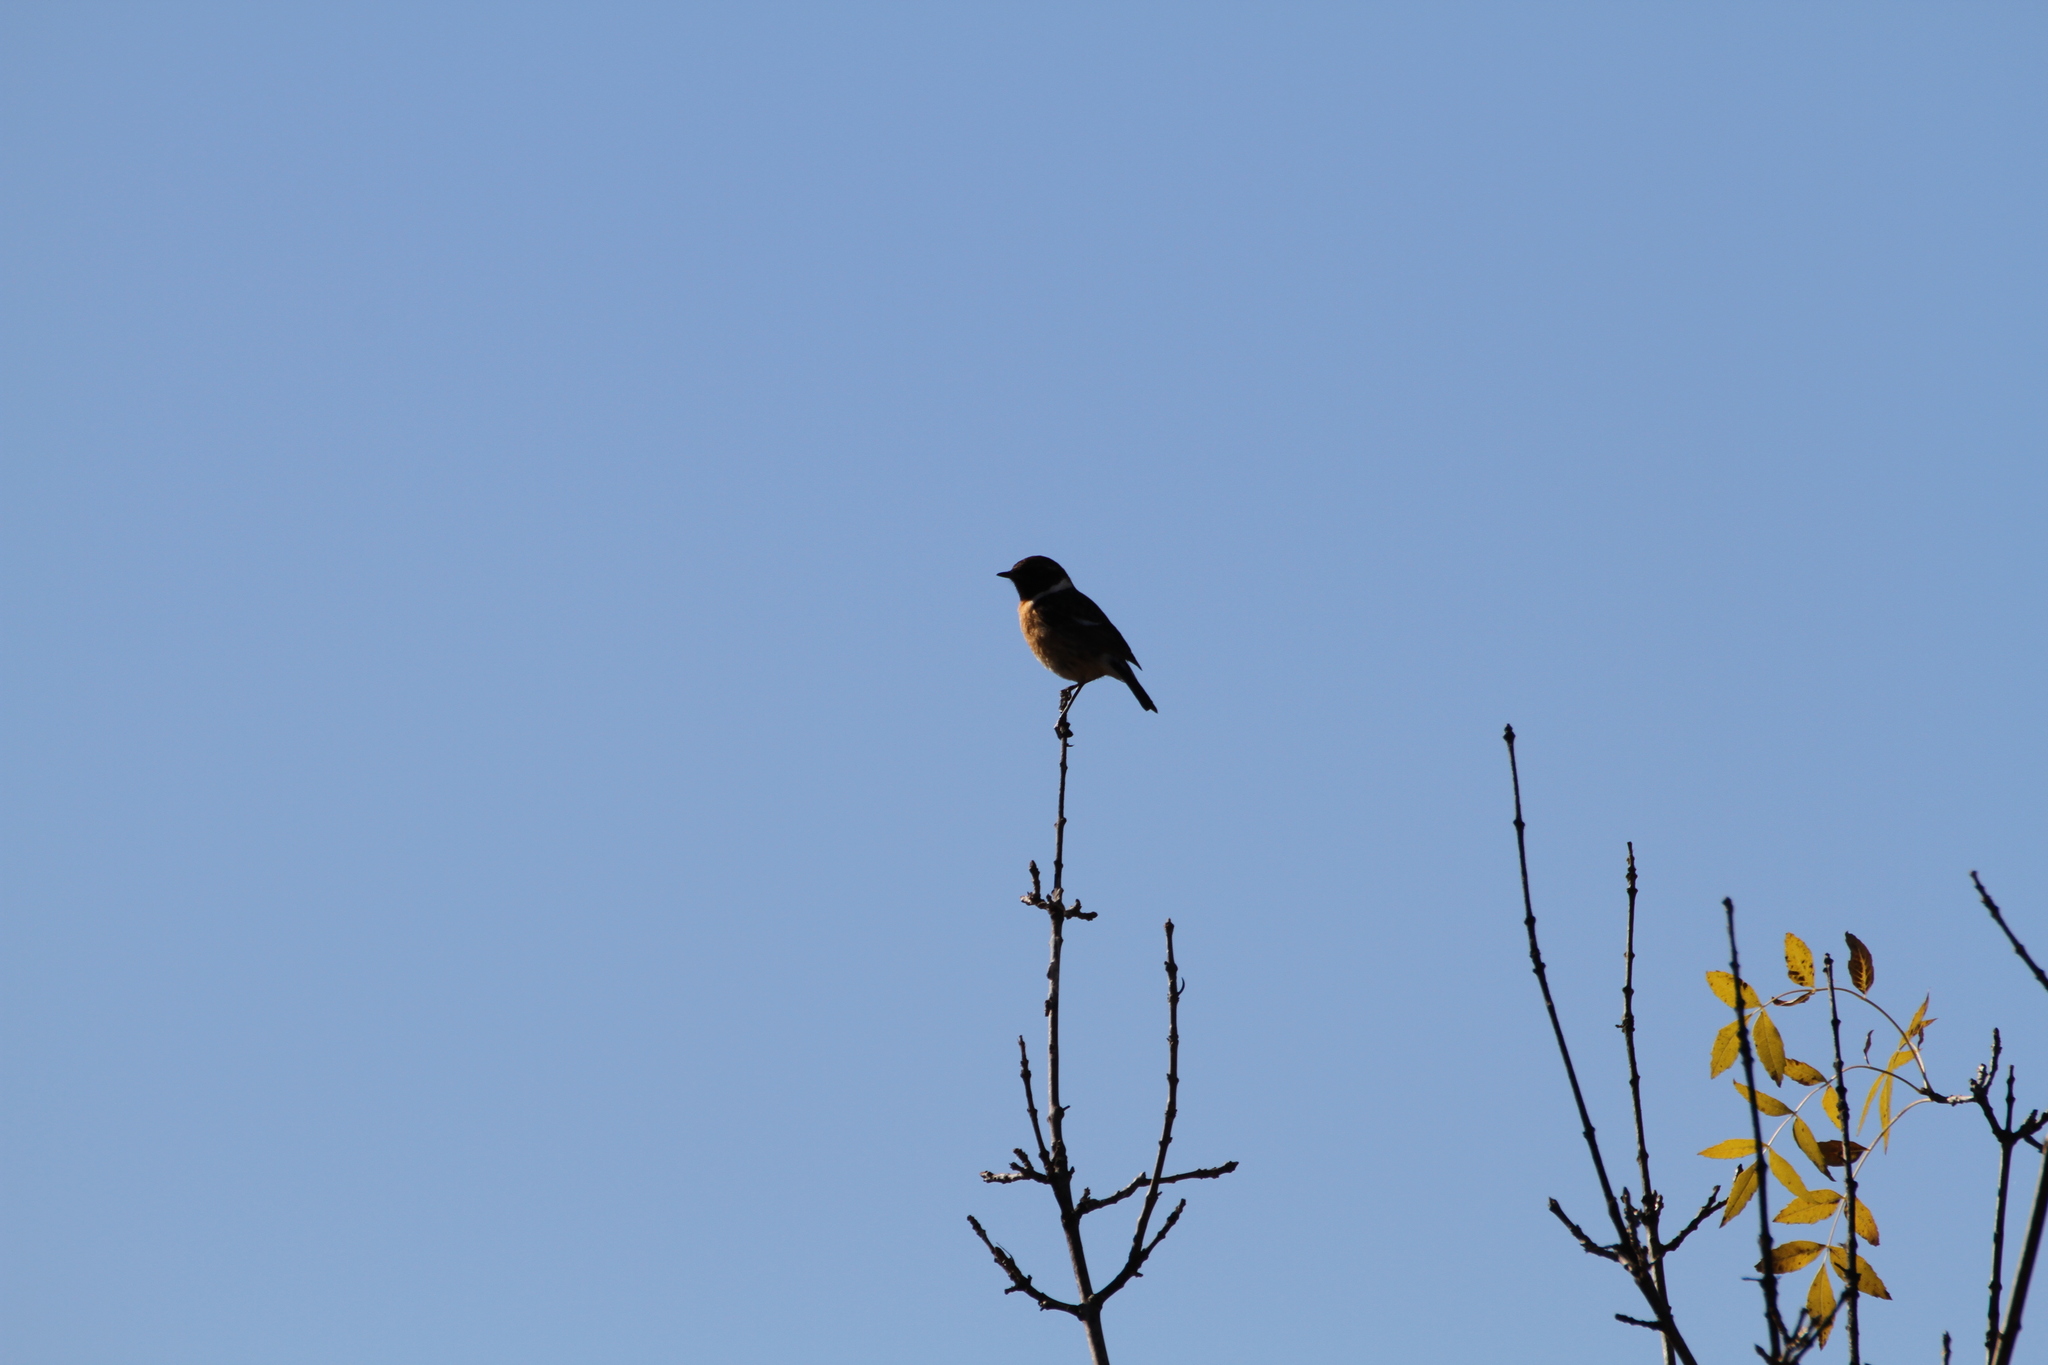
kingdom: Animalia
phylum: Chordata
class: Aves
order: Passeriformes
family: Muscicapidae
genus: Saxicola
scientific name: Saxicola rubicola
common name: European stonechat
